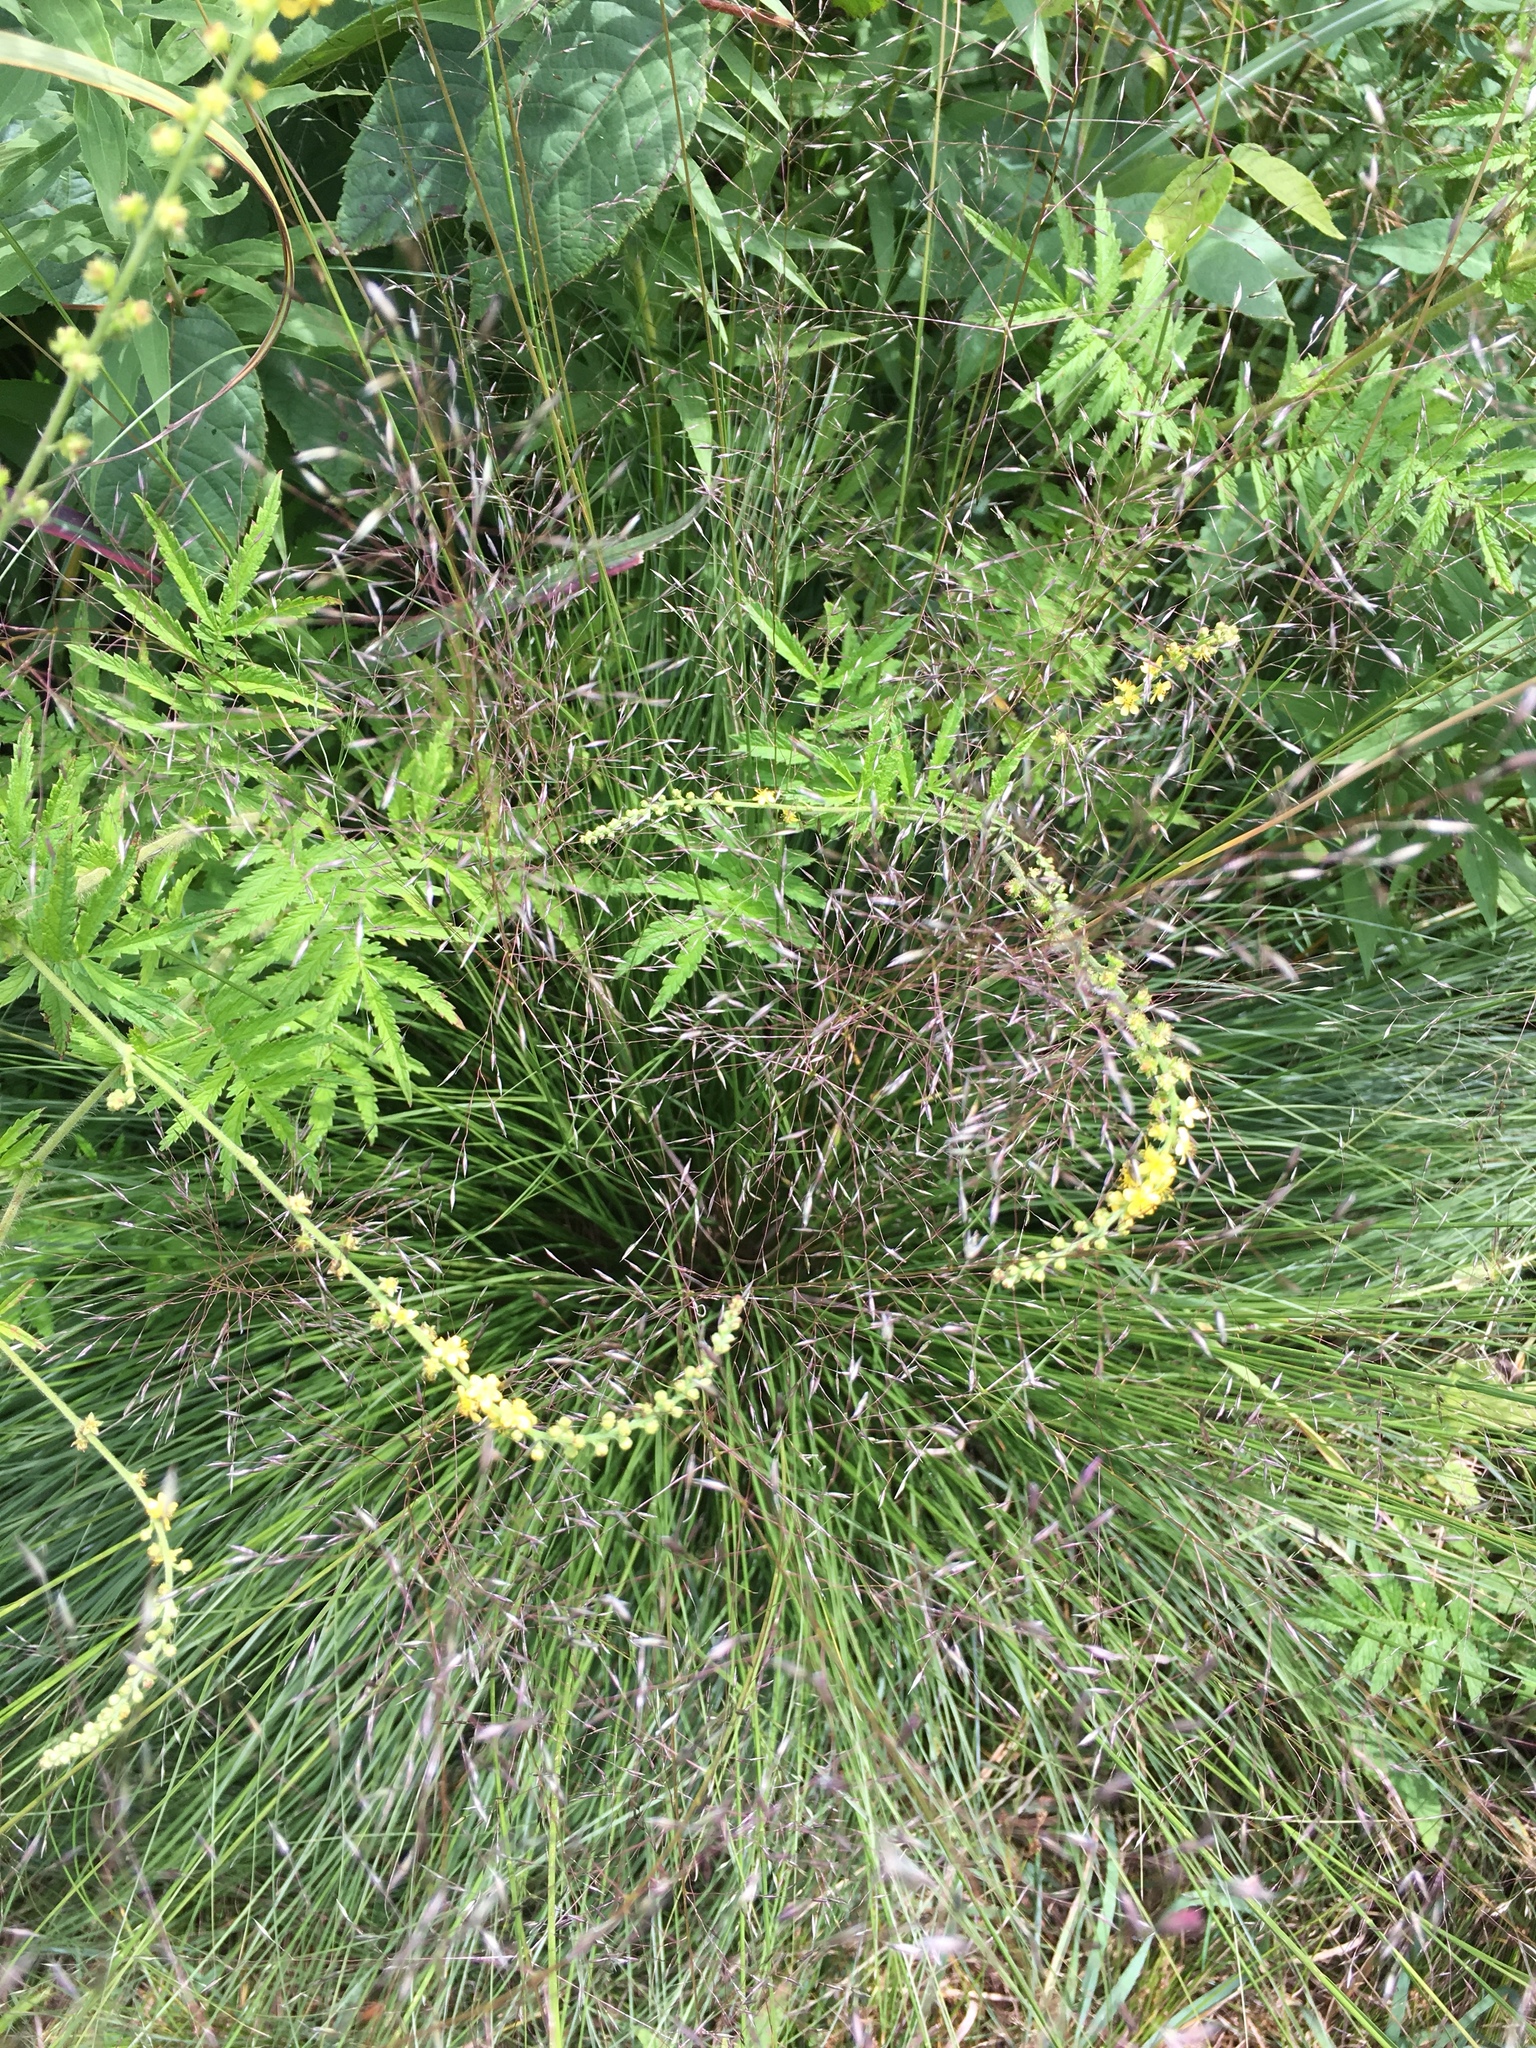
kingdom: Plantae
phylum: Tracheophyta
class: Liliopsida
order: Poales
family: Poaceae
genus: Sporobolus
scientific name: Sporobolus heterolepis
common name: Prairie dropseed
